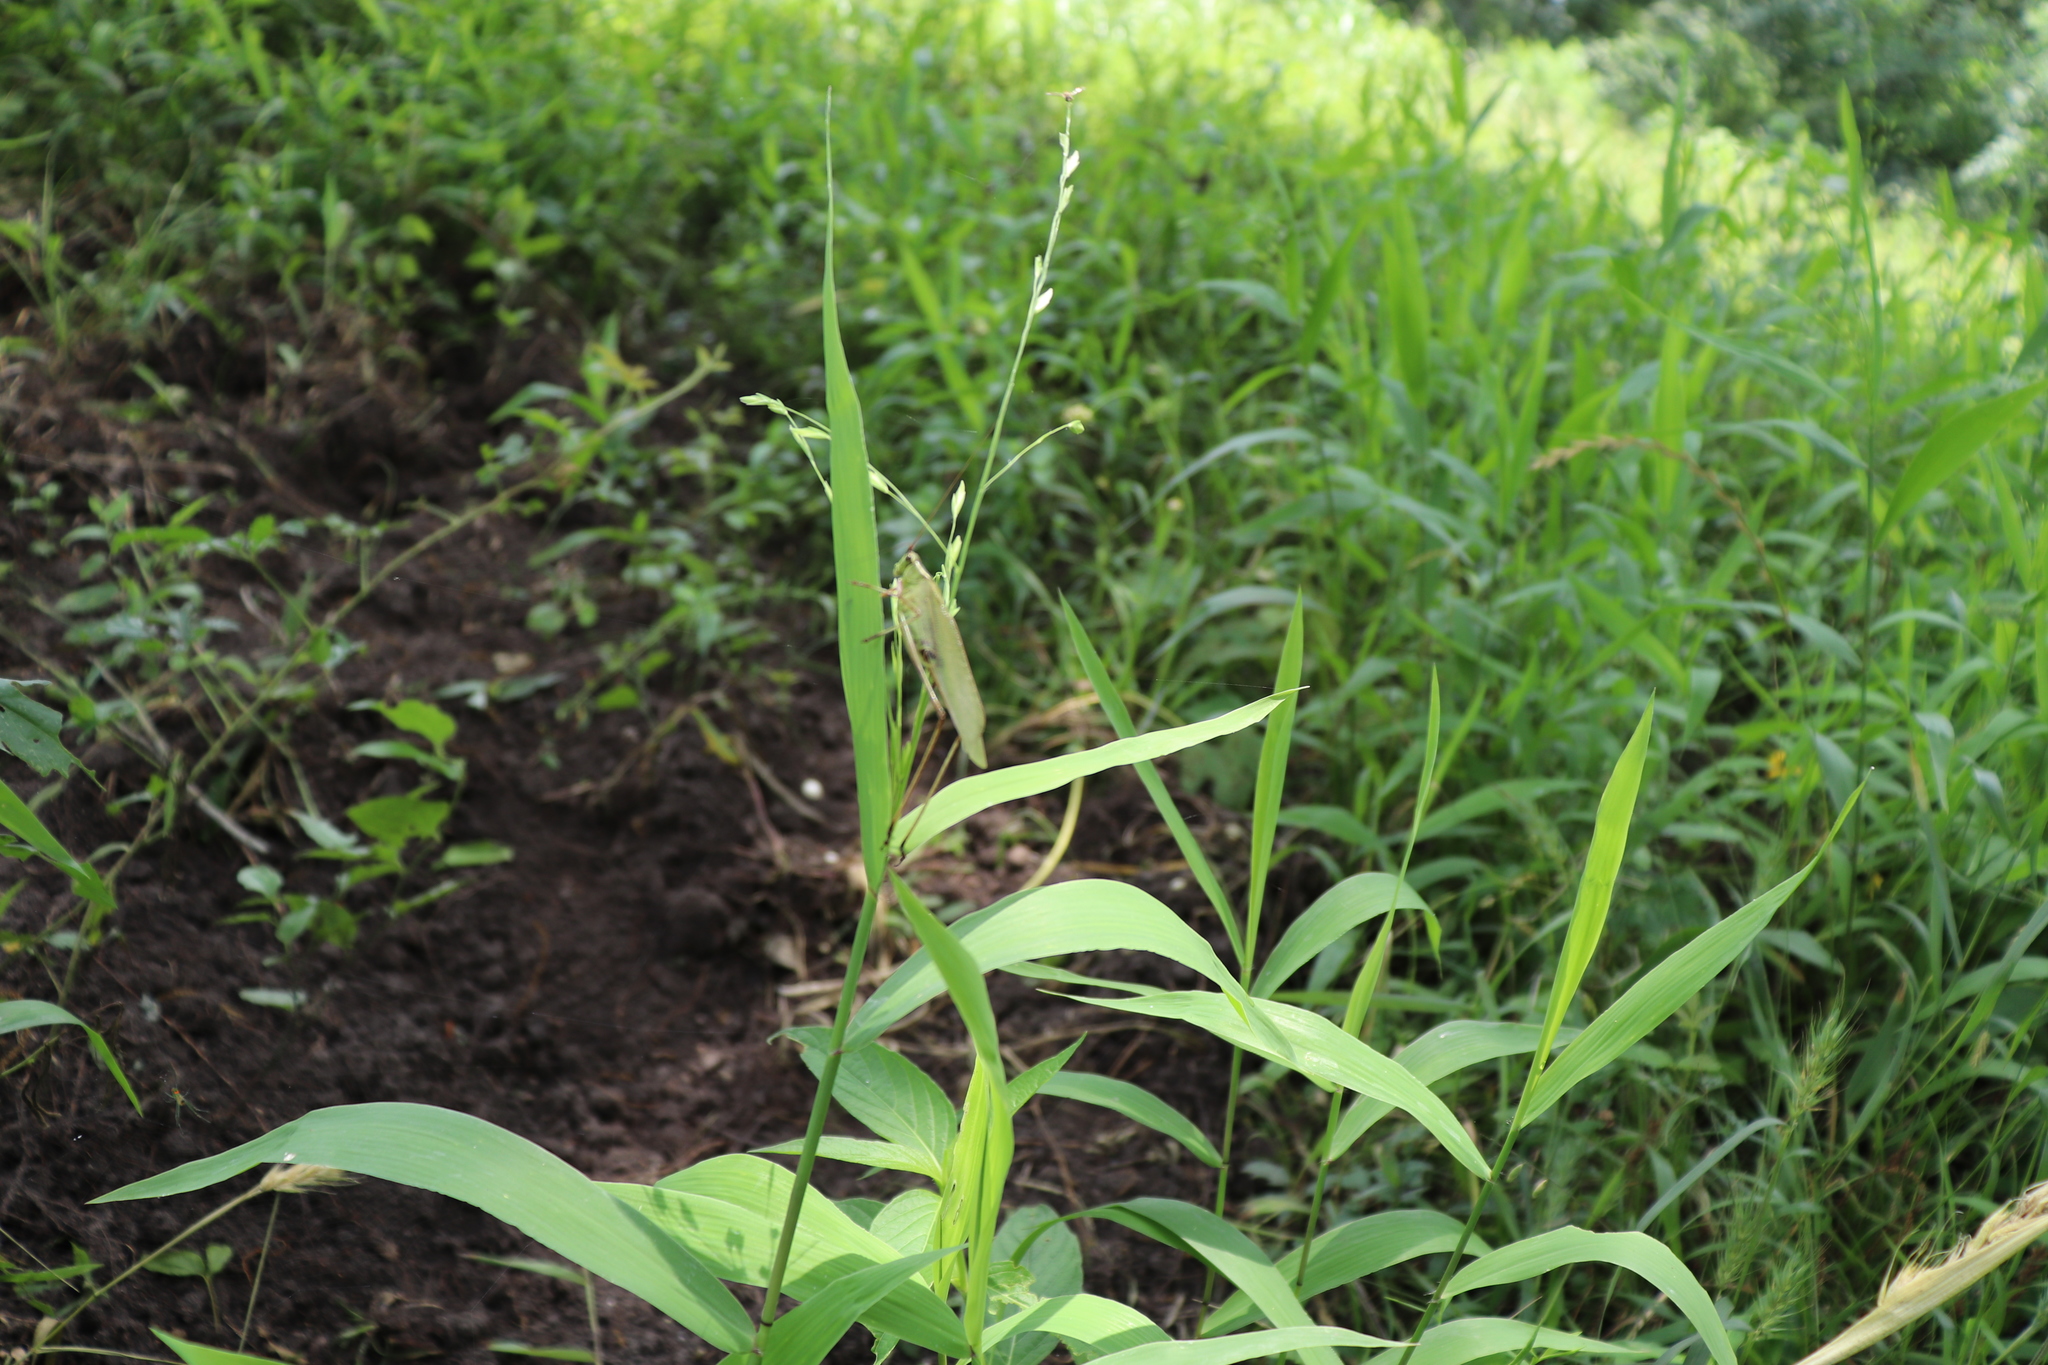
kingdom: Plantae
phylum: Tracheophyta
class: Liliopsida
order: Poales
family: Poaceae
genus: Chasmanthium
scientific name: Chasmanthium latifolium
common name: Broad-leaved chasmanthium
